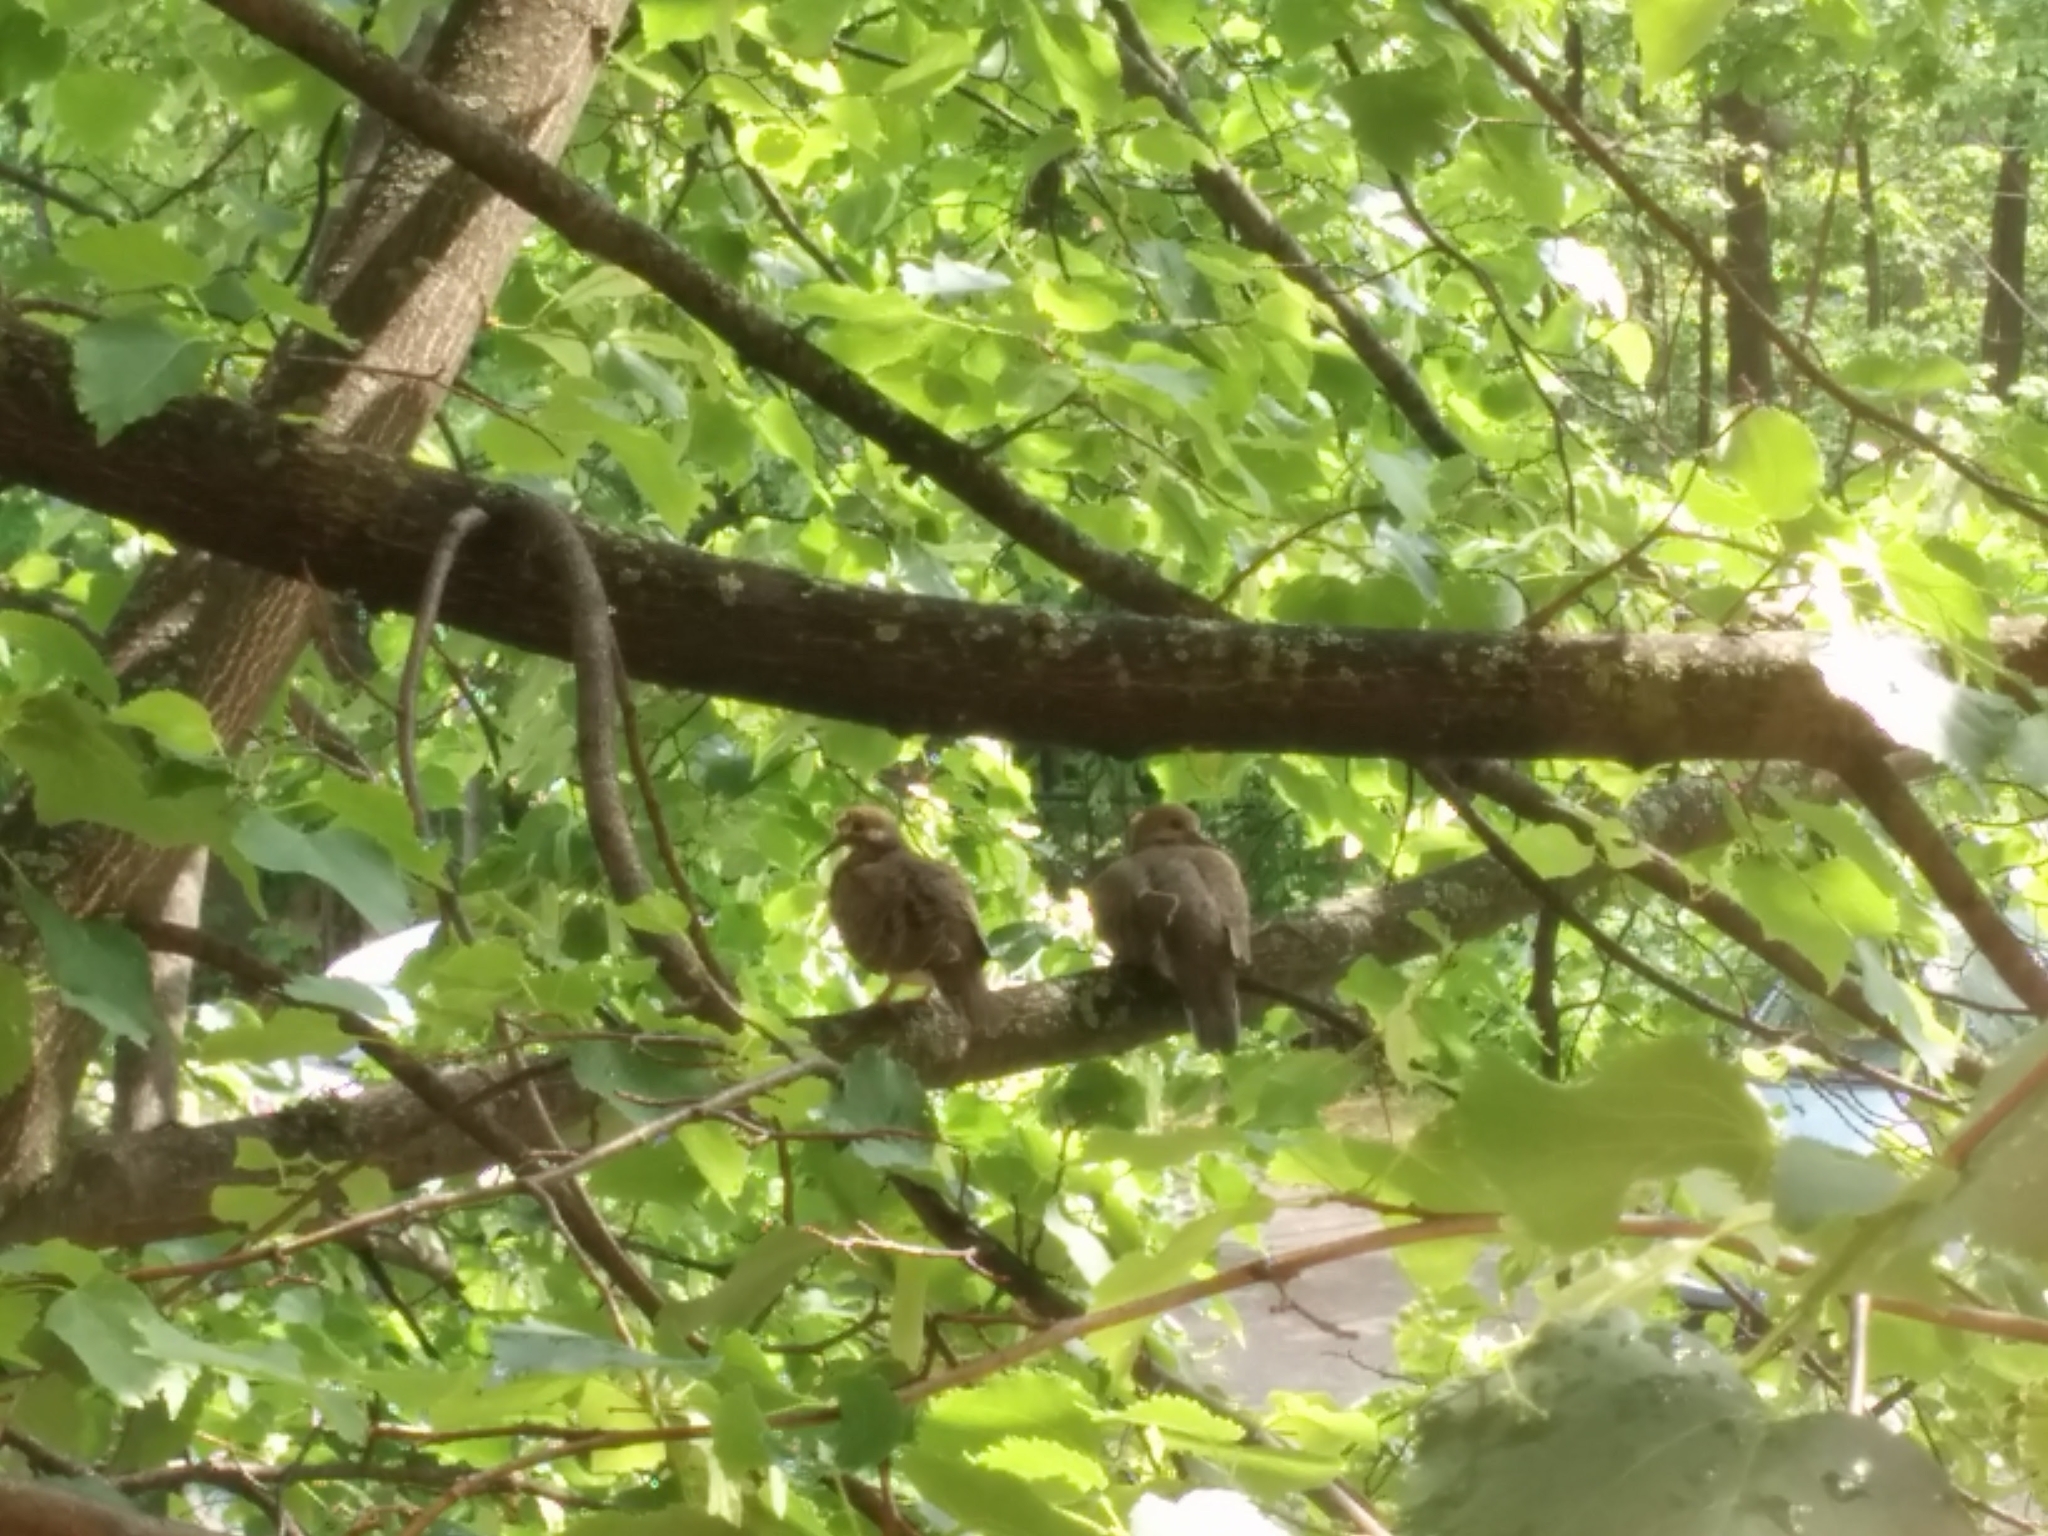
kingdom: Animalia
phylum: Chordata
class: Aves
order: Columbiformes
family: Columbidae
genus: Zenaida
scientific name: Zenaida macroura
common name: Mourning dove
